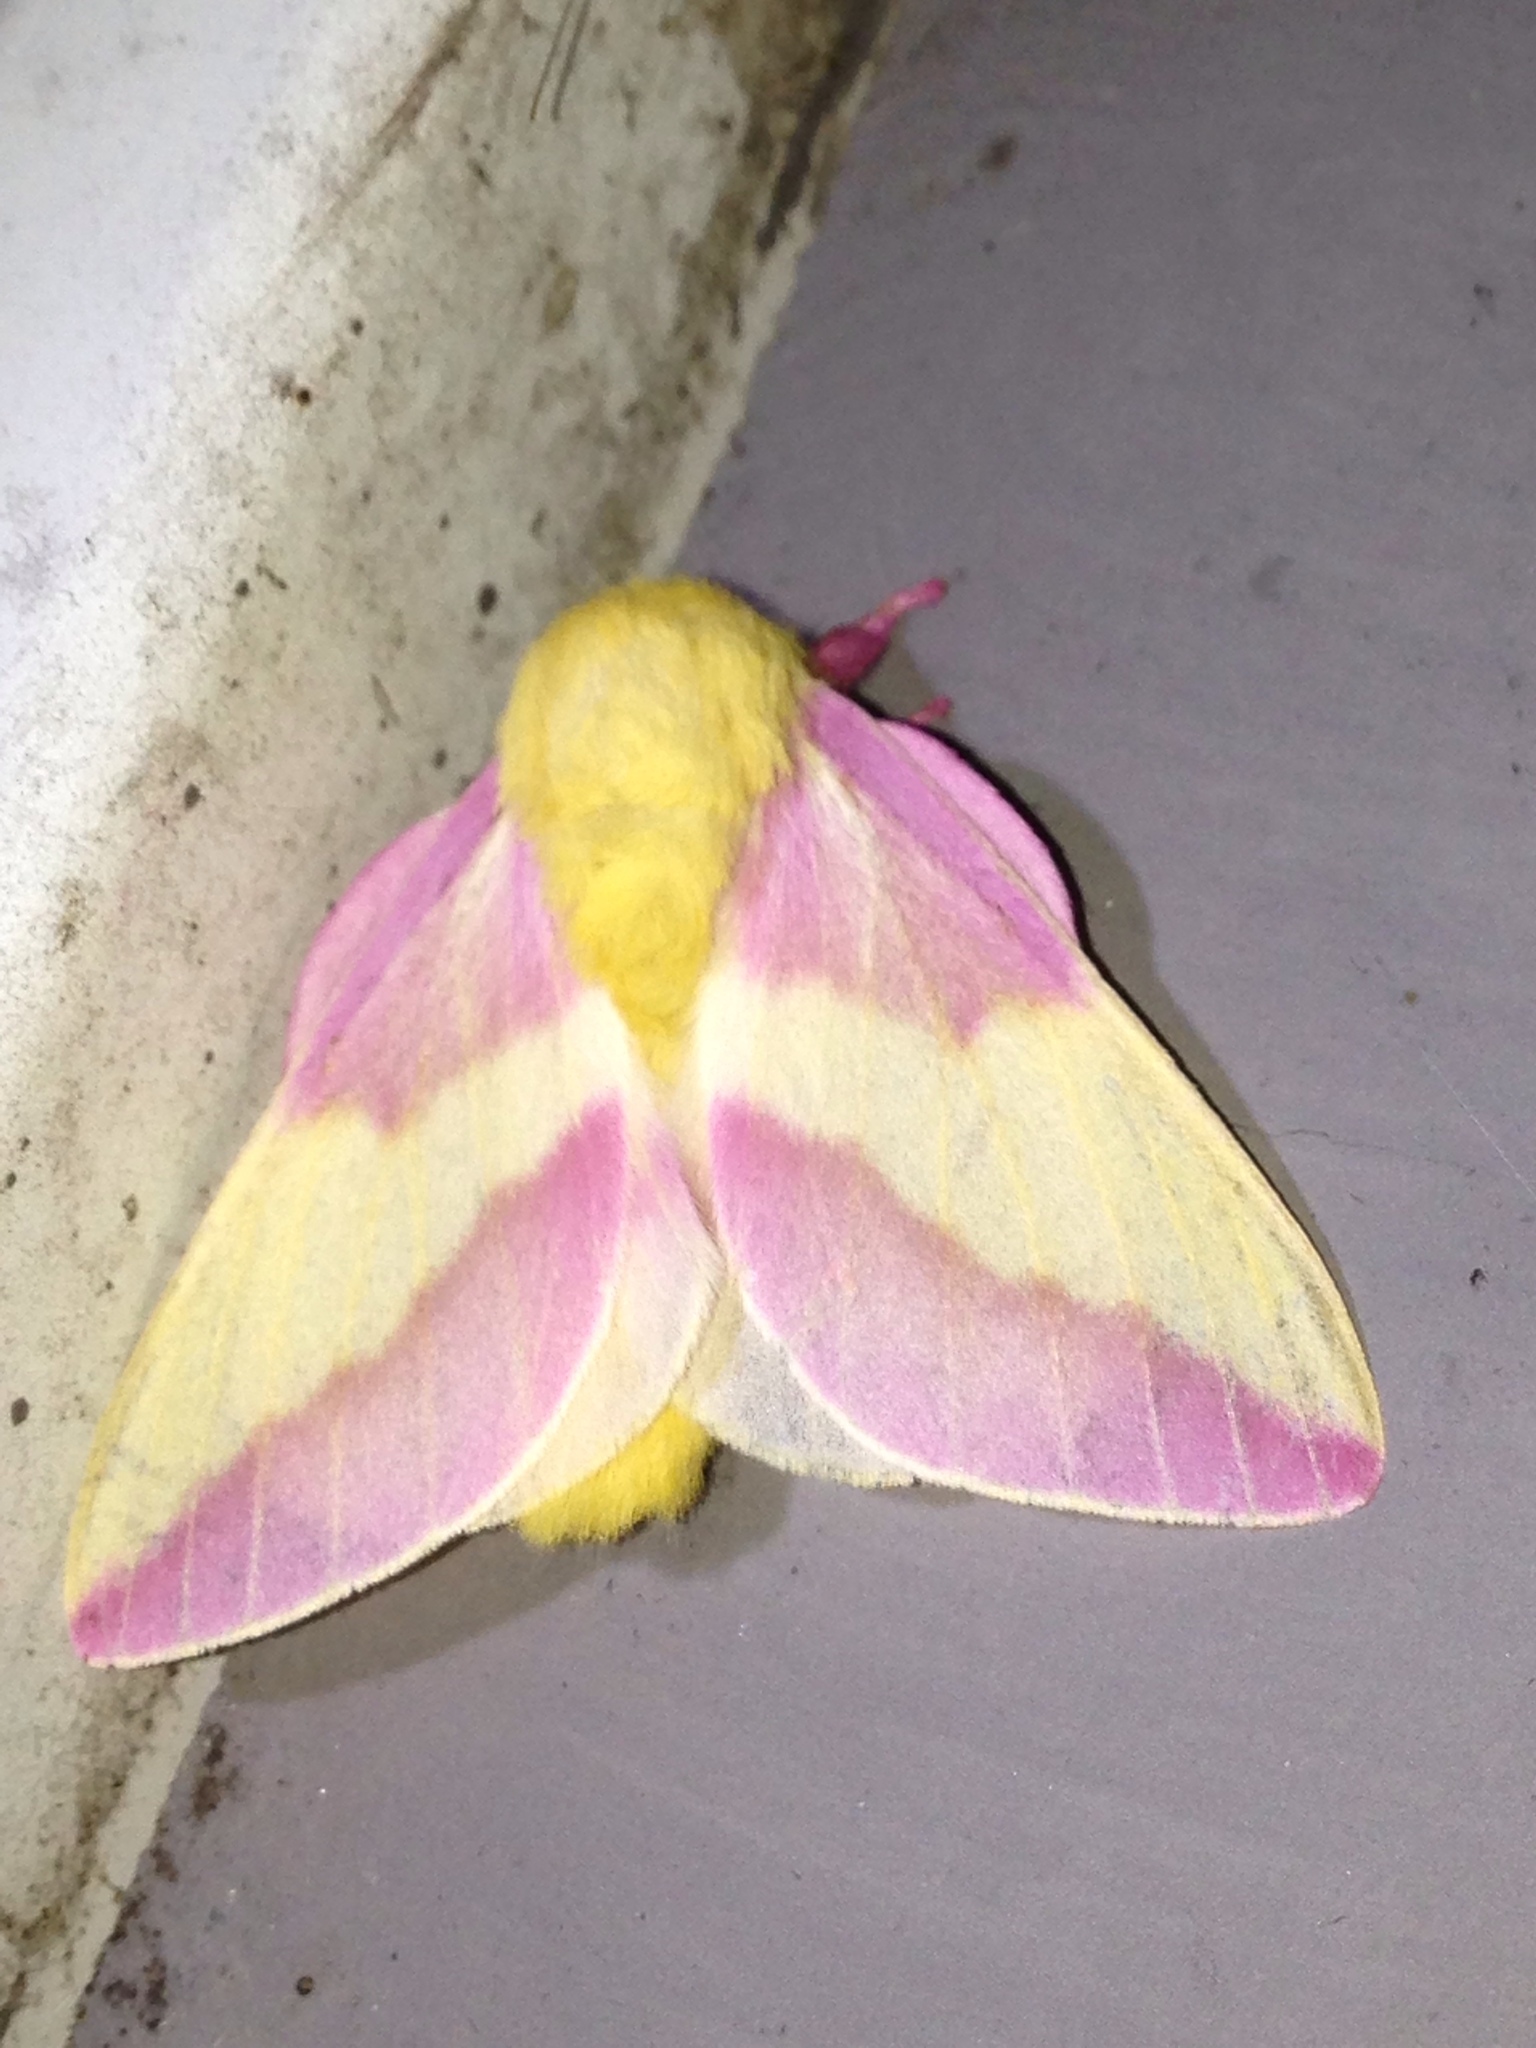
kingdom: Animalia
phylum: Arthropoda
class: Insecta
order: Lepidoptera
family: Saturniidae
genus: Dryocampa
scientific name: Dryocampa rubicunda
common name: Rosy maple moth
